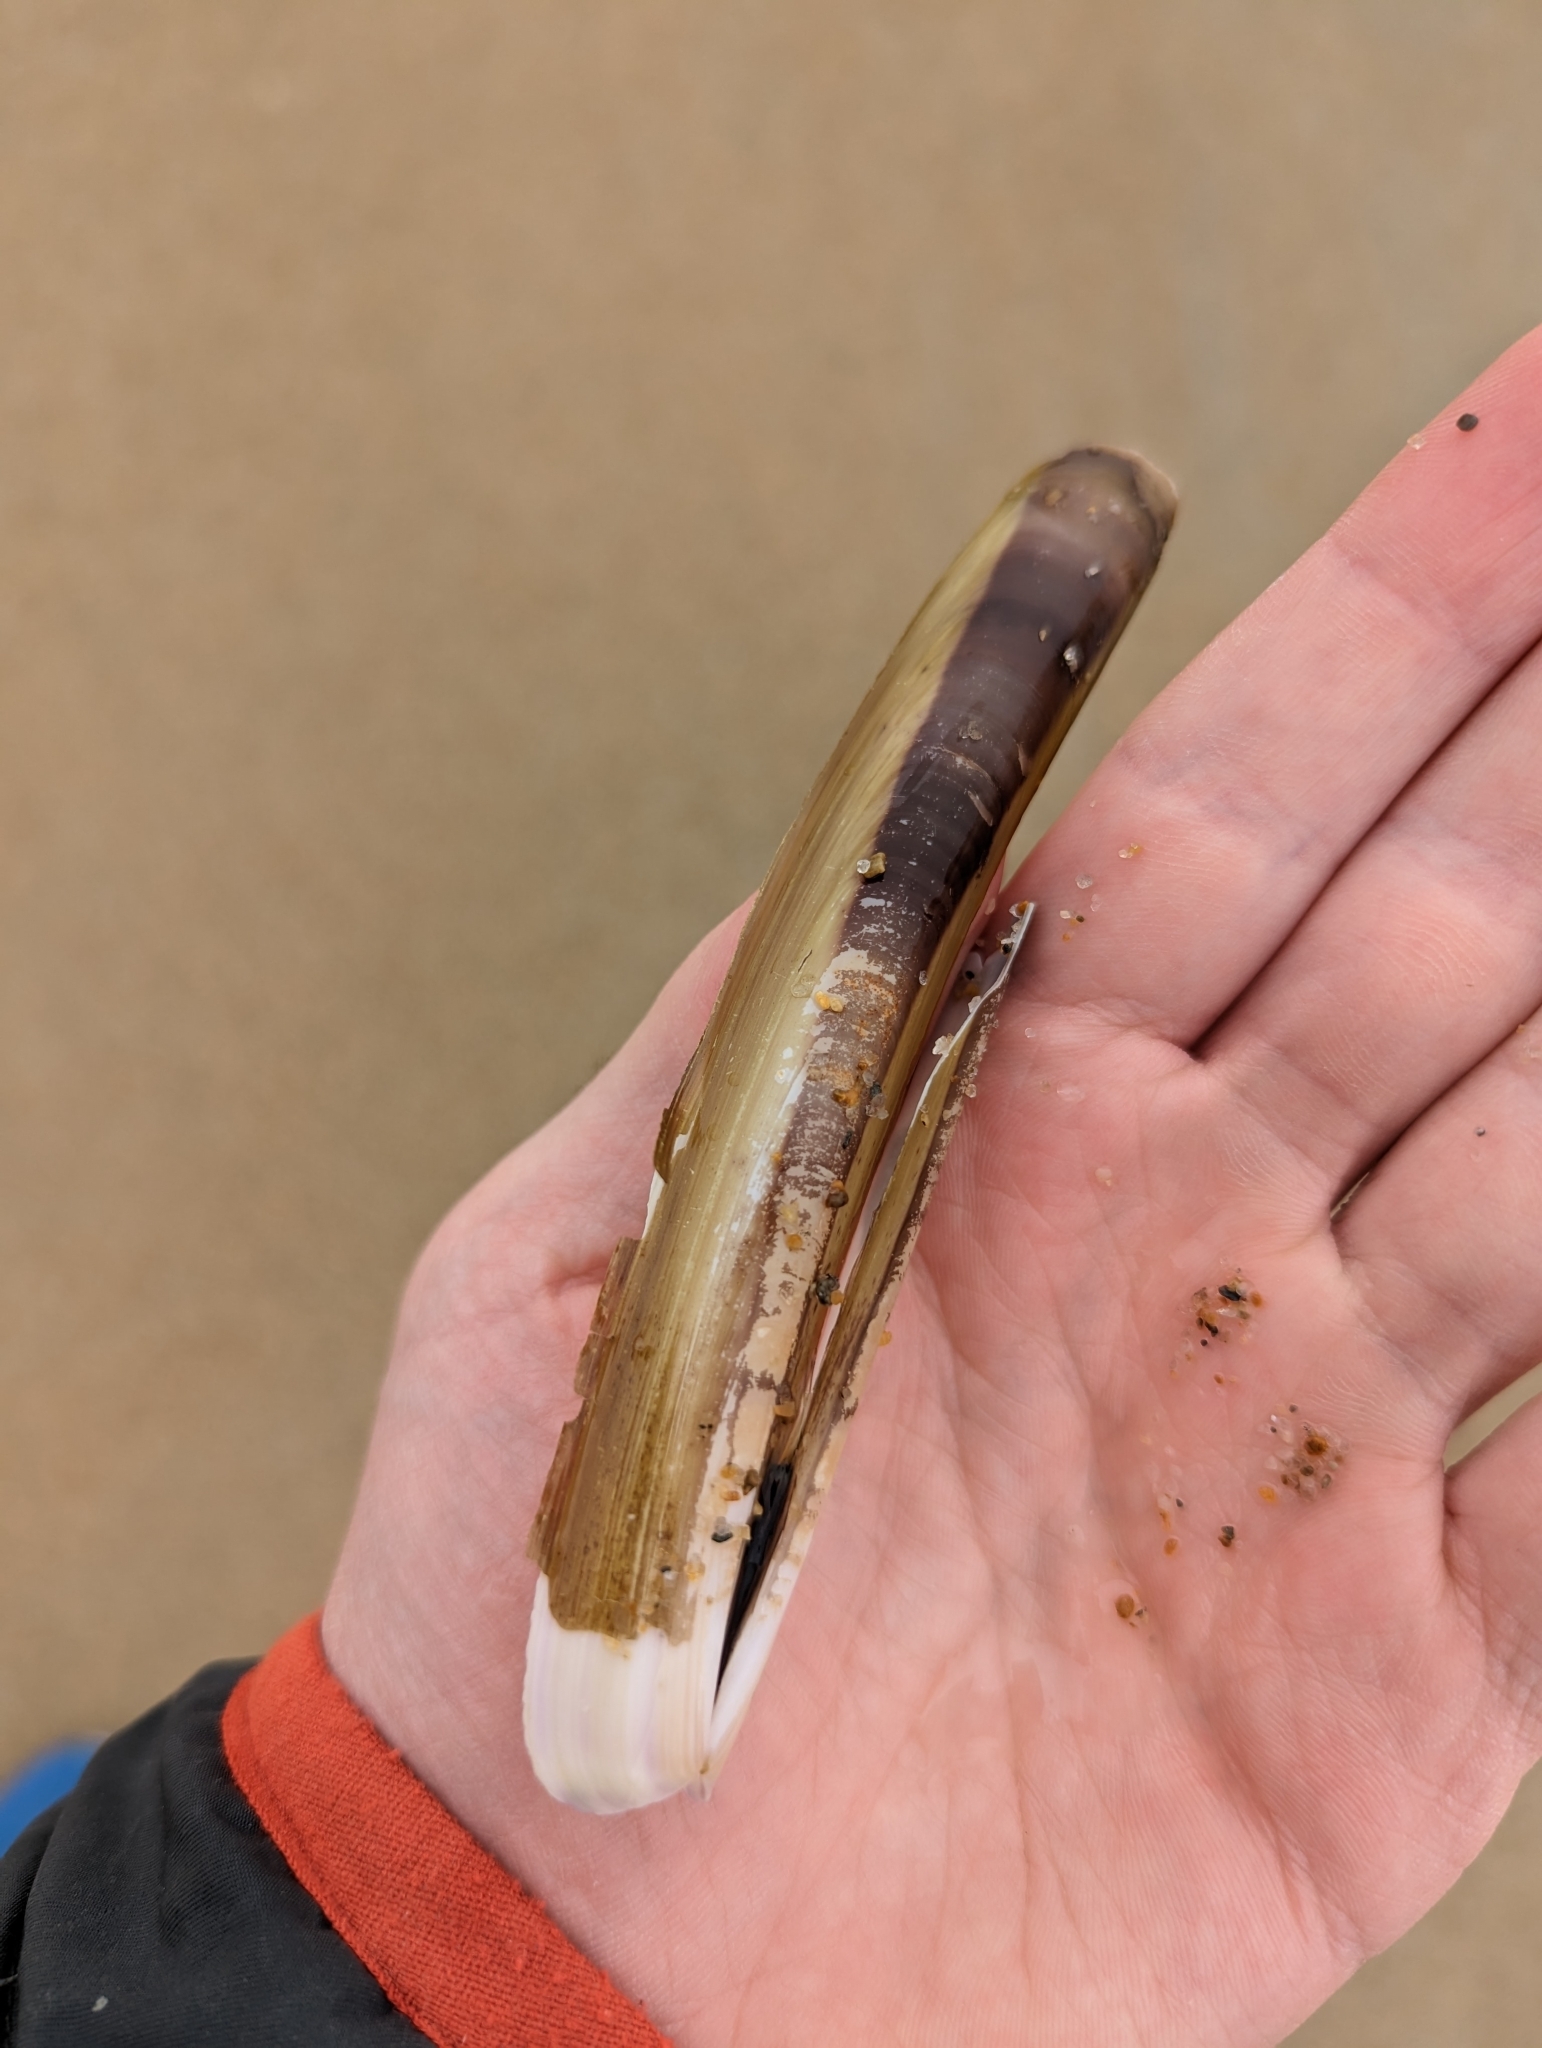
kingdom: Animalia
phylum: Mollusca
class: Bivalvia
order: Adapedonta
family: Pharidae
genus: Ensis
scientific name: Ensis leei
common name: American jack knife clam
